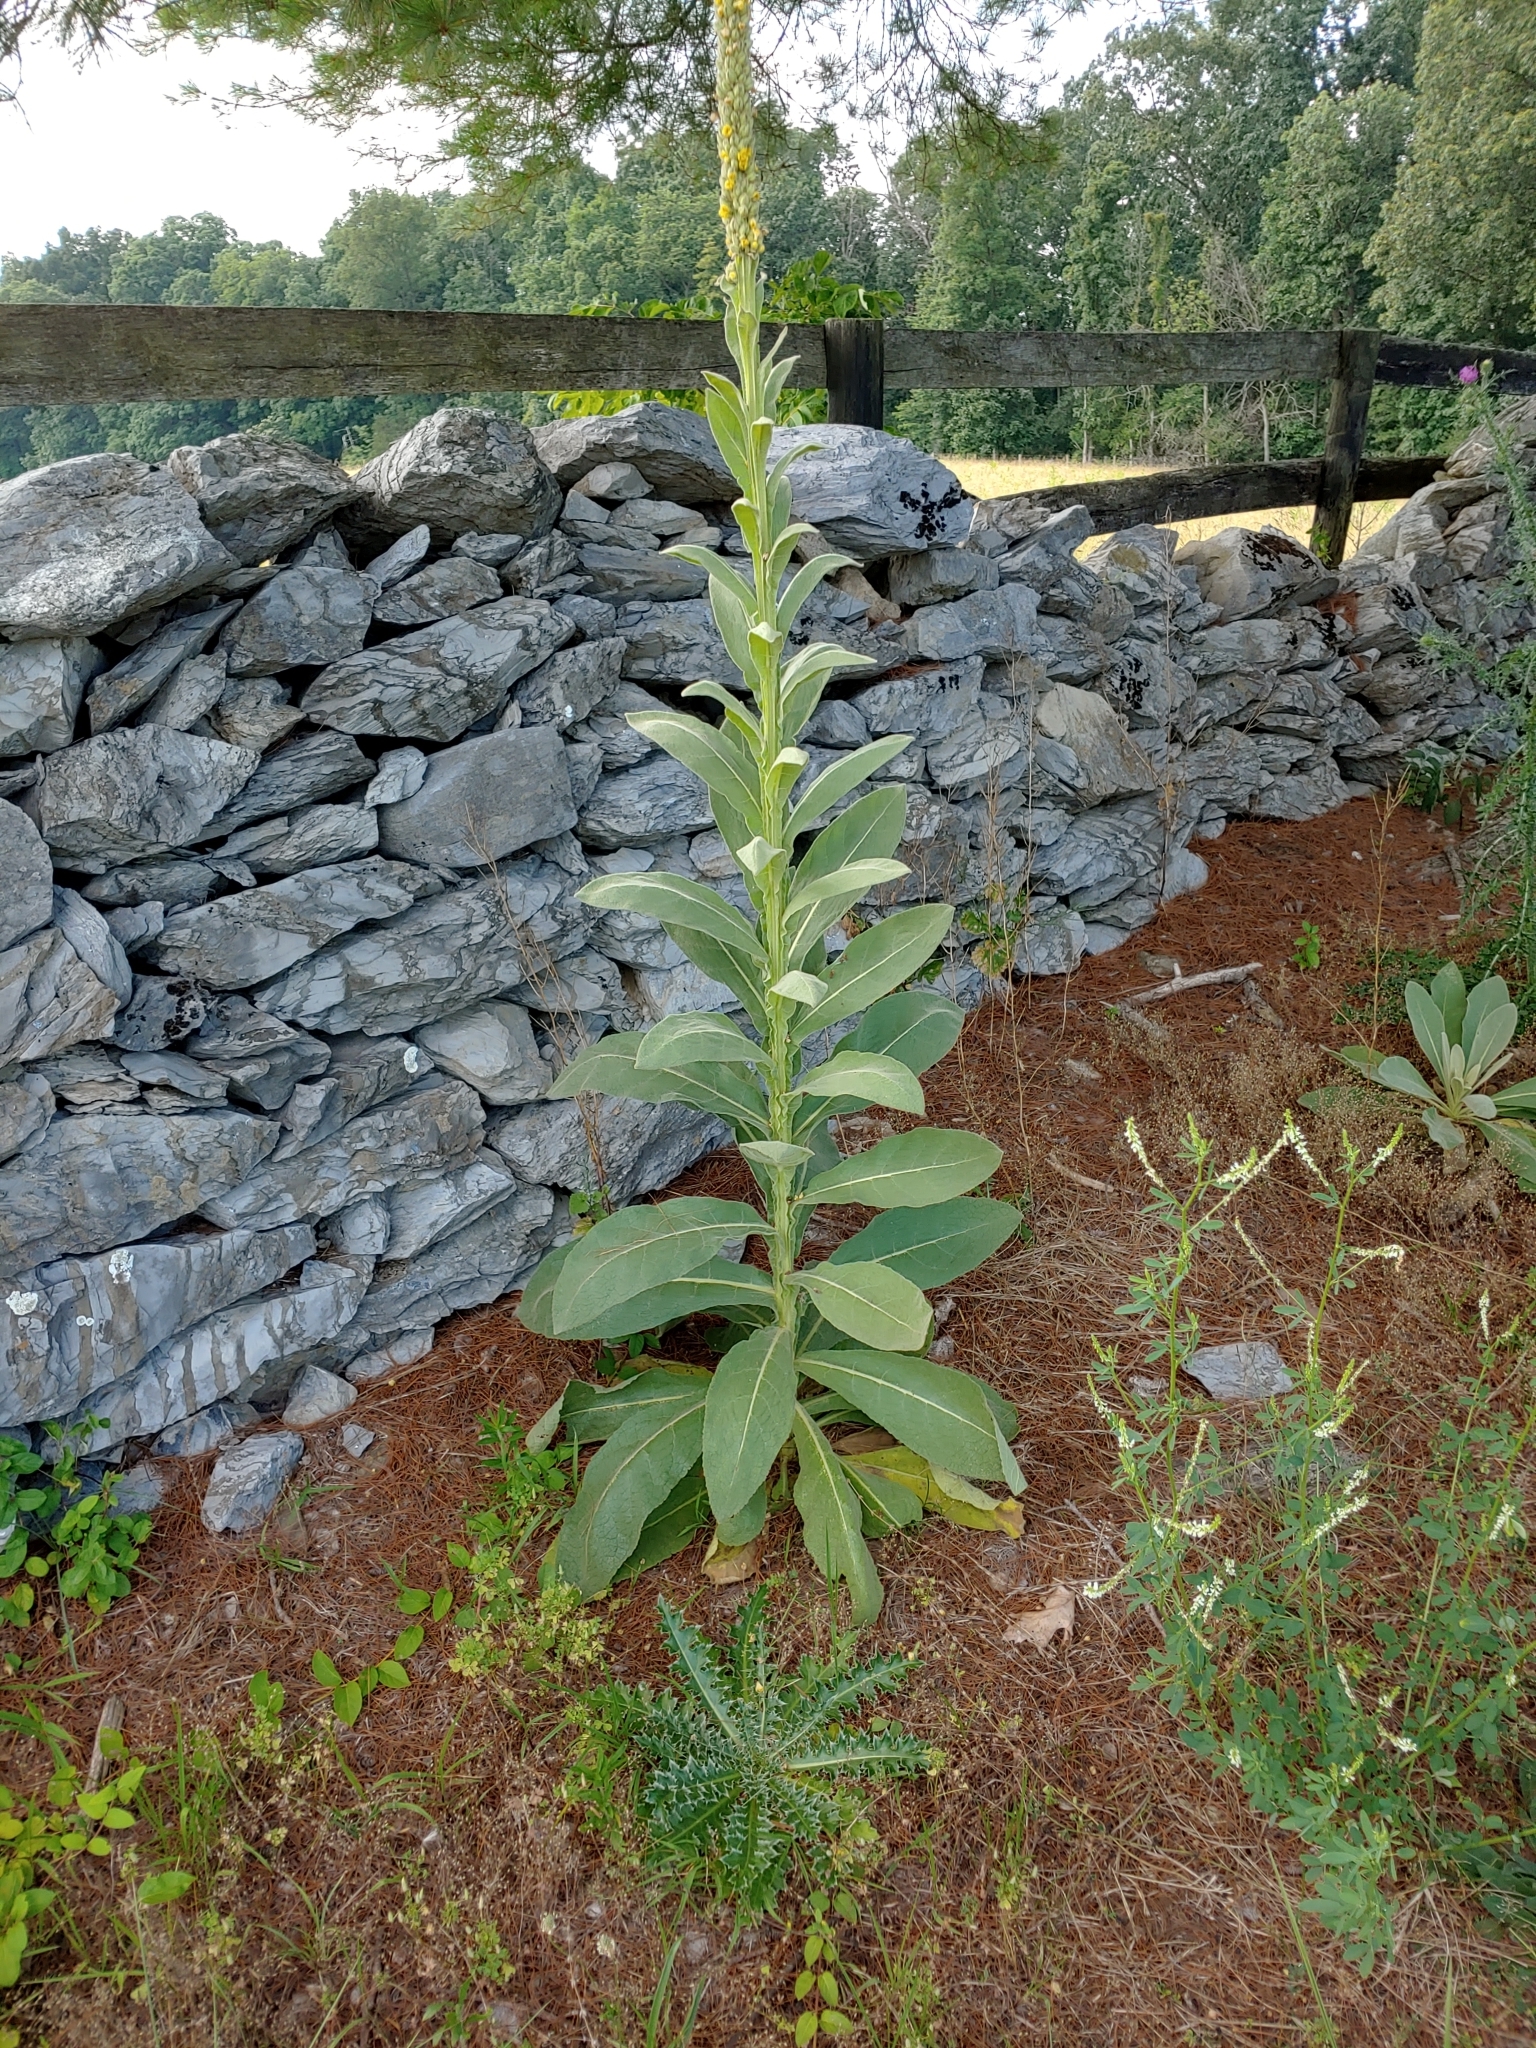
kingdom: Plantae
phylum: Tracheophyta
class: Magnoliopsida
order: Lamiales
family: Scrophulariaceae
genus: Verbascum
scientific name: Verbascum thapsus
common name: Common mullein
